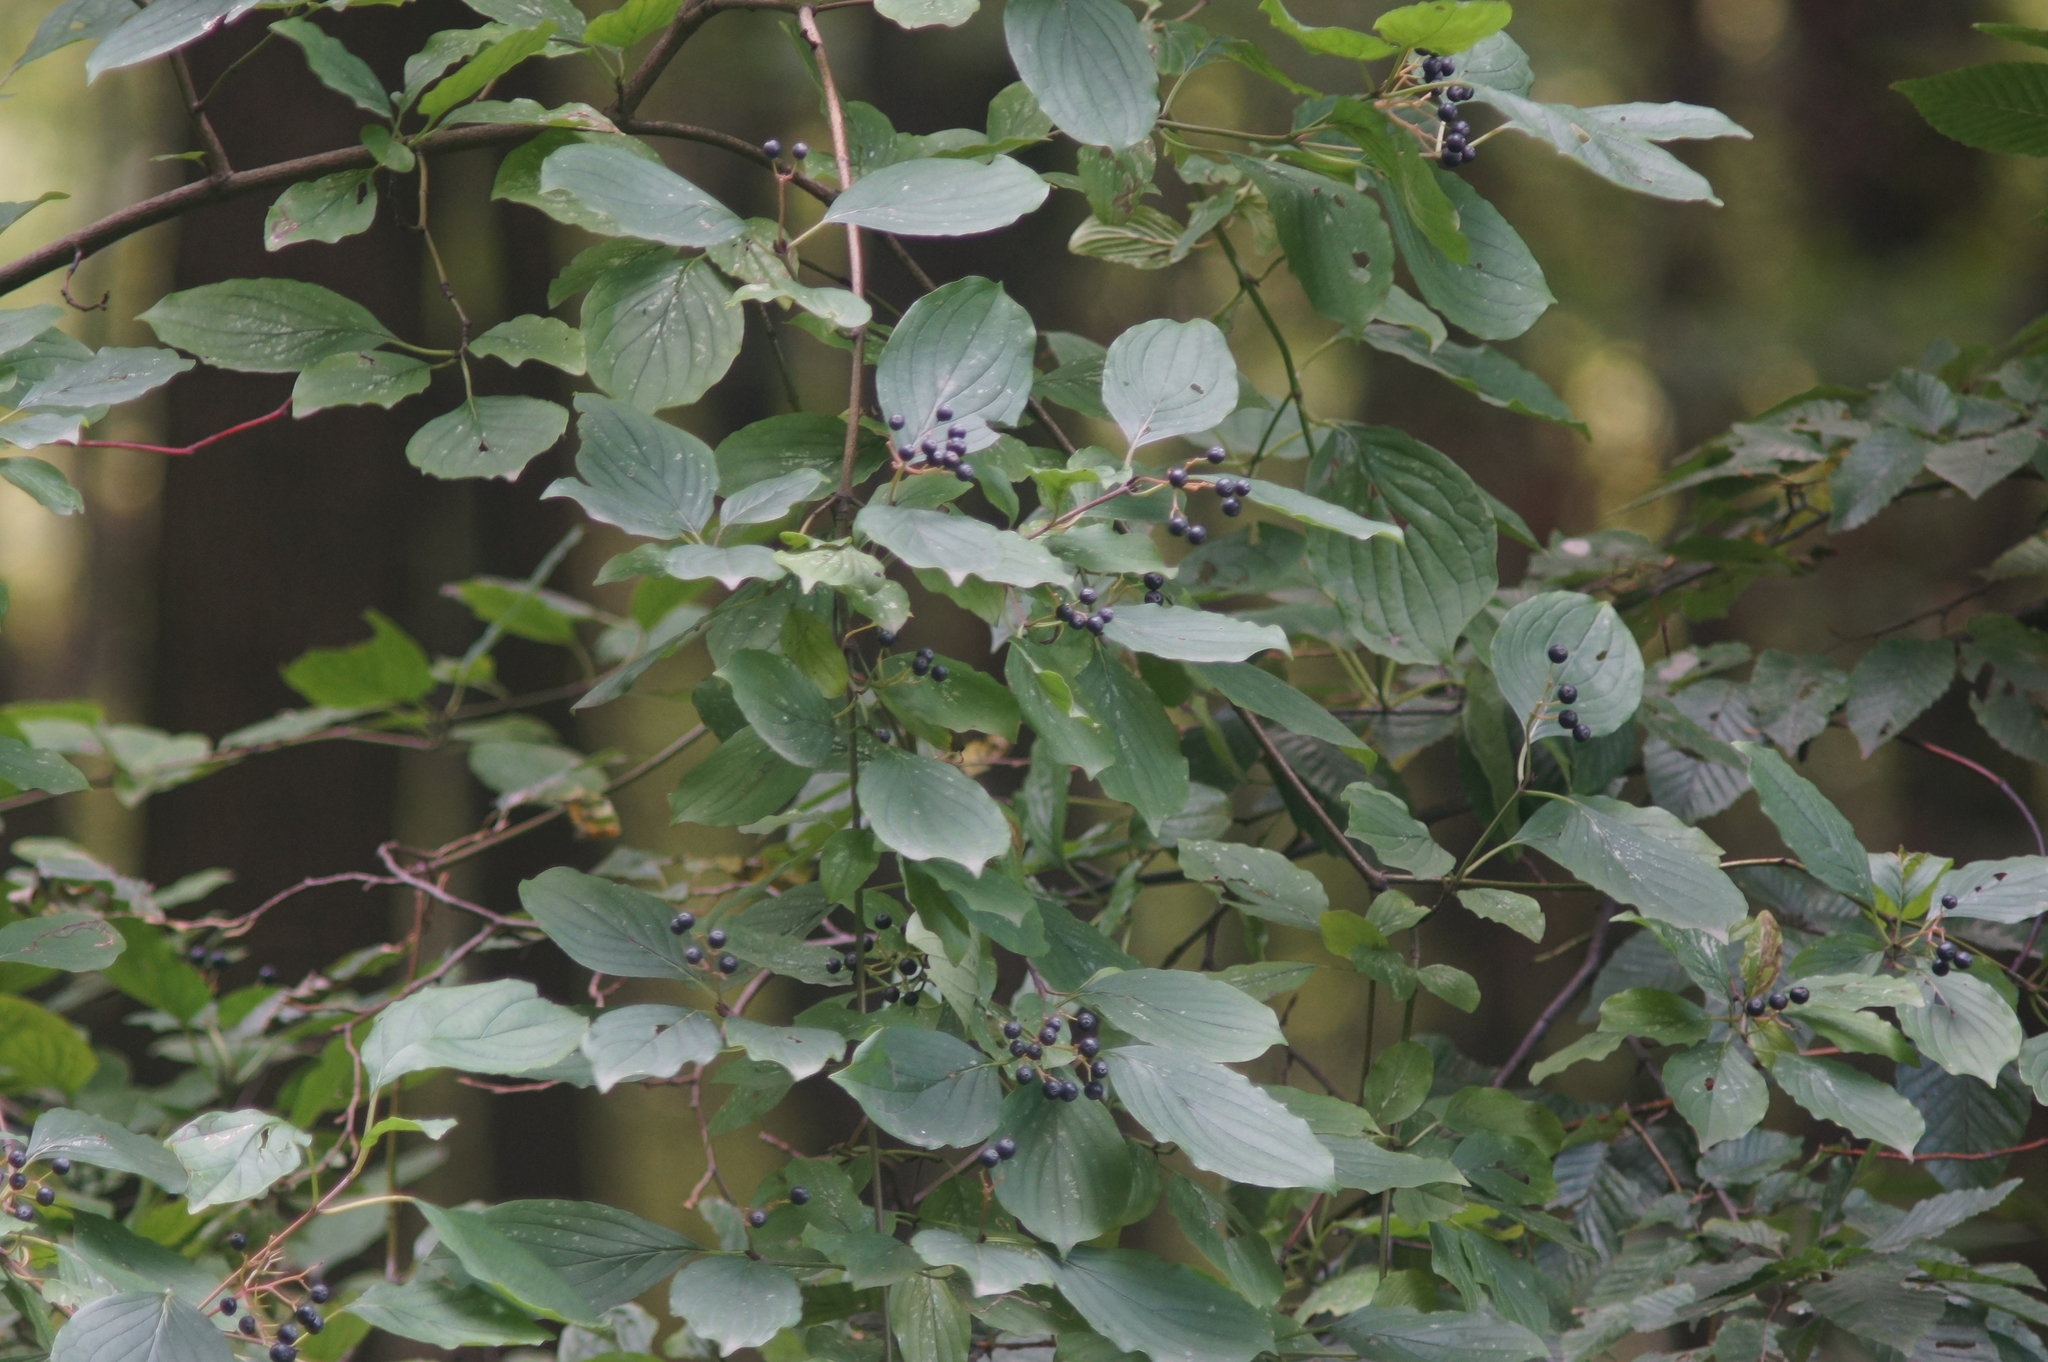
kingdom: Plantae
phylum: Tracheophyta
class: Magnoliopsida
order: Cornales
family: Cornaceae
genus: Cornus
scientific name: Cornus sanguinea
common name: Dogwood
